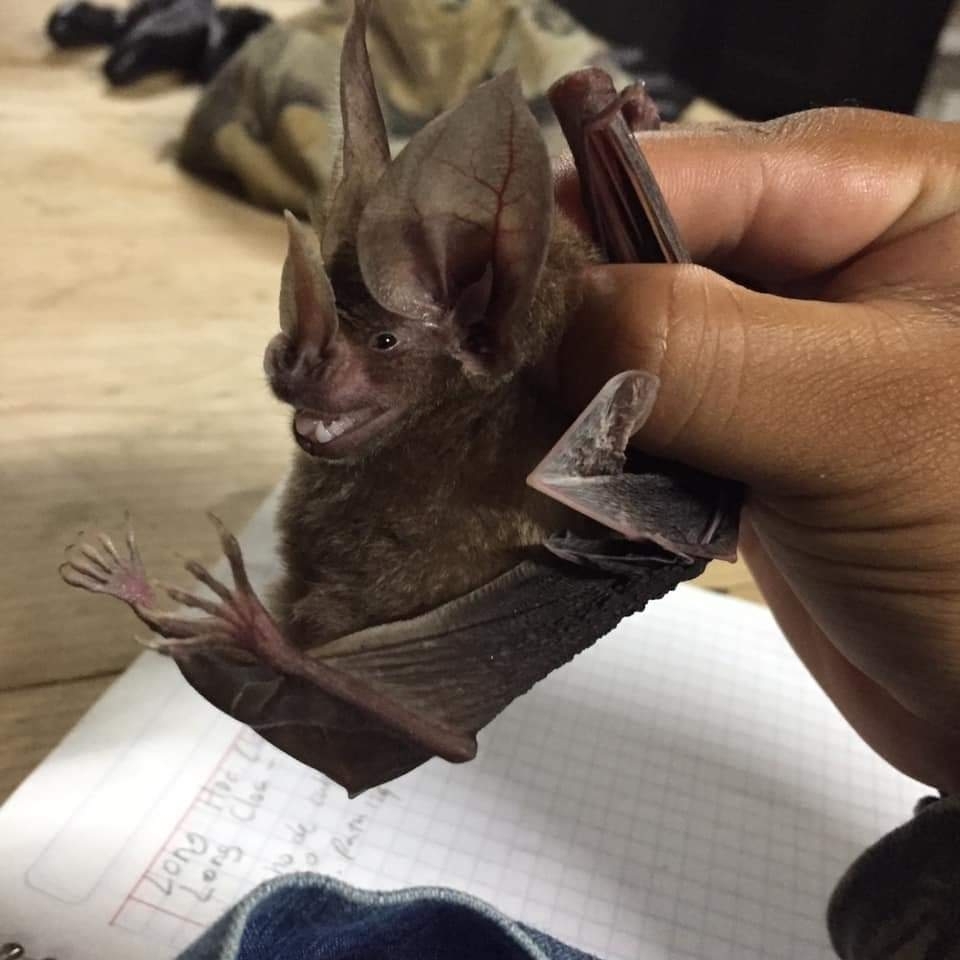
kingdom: Animalia
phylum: Chordata
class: Mammalia
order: Chiroptera
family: Phyllostomidae
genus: Mimon
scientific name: Mimon cozumelae
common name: Cozumelan golden bat
